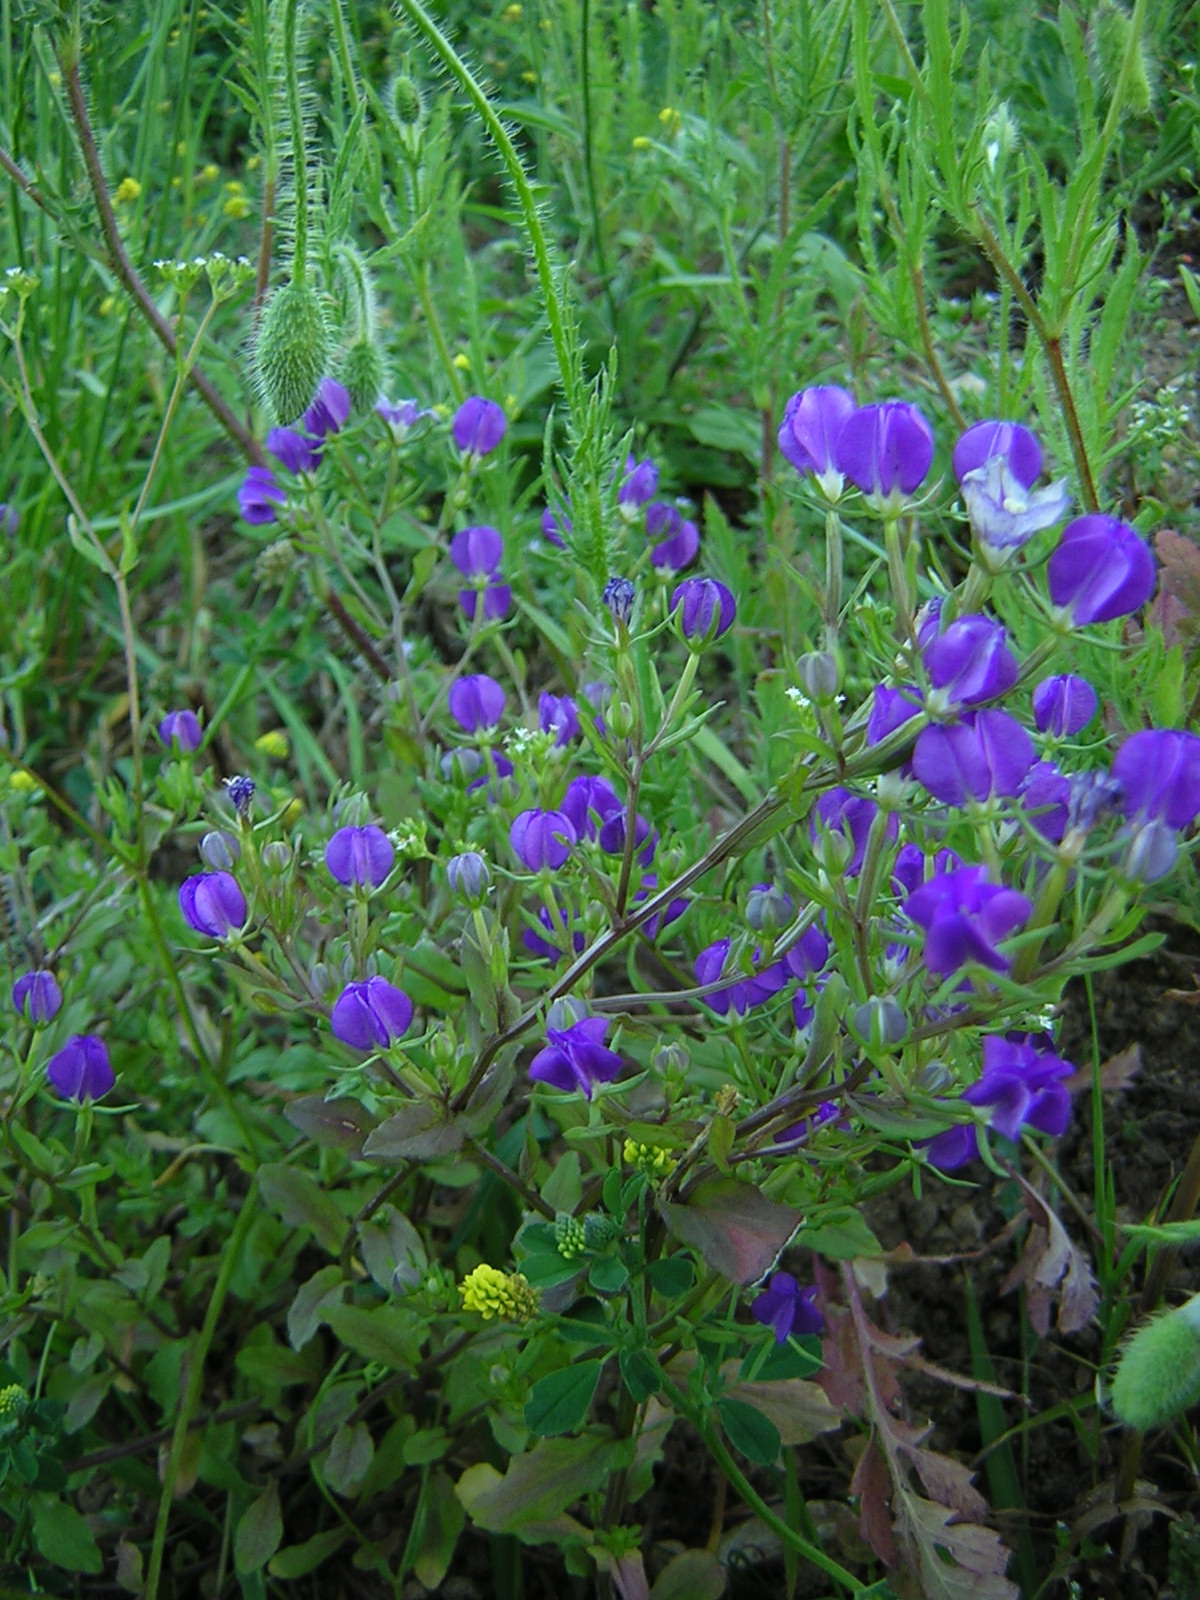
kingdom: Plantae
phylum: Tracheophyta
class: Magnoliopsida
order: Asterales
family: Campanulaceae
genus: Legousia
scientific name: Legousia speculum-veneris
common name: Large venus's-looking-glass
